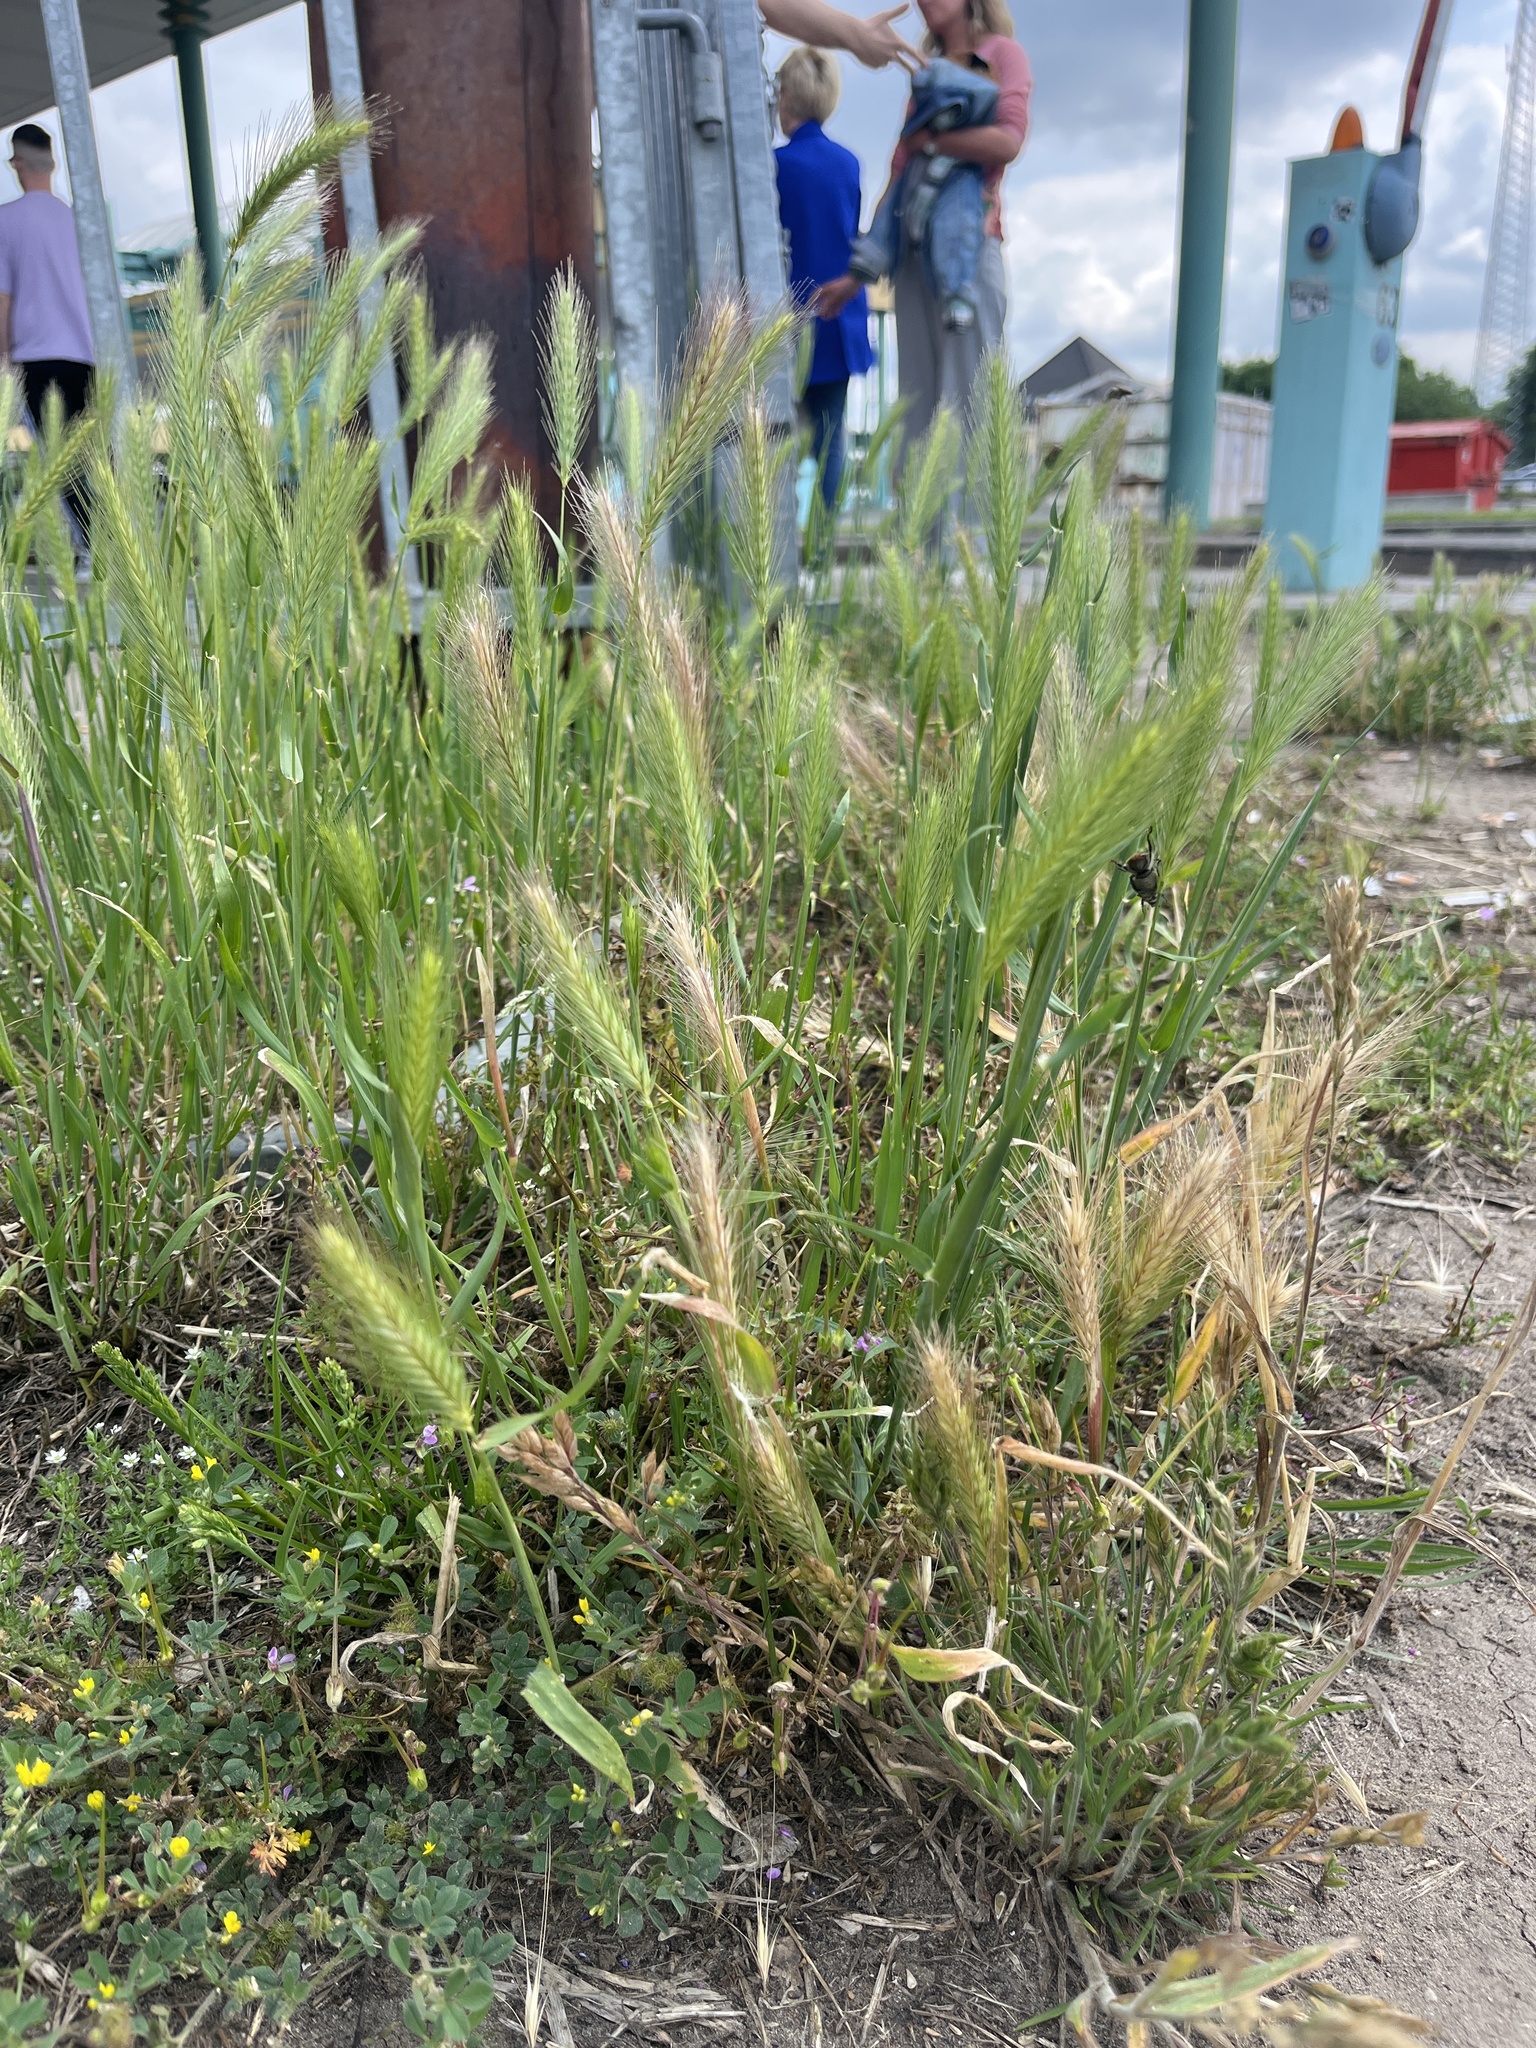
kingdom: Plantae
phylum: Tracheophyta
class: Liliopsida
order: Poales
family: Poaceae
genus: Hordeum
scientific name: Hordeum murinum
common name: Wall barley
